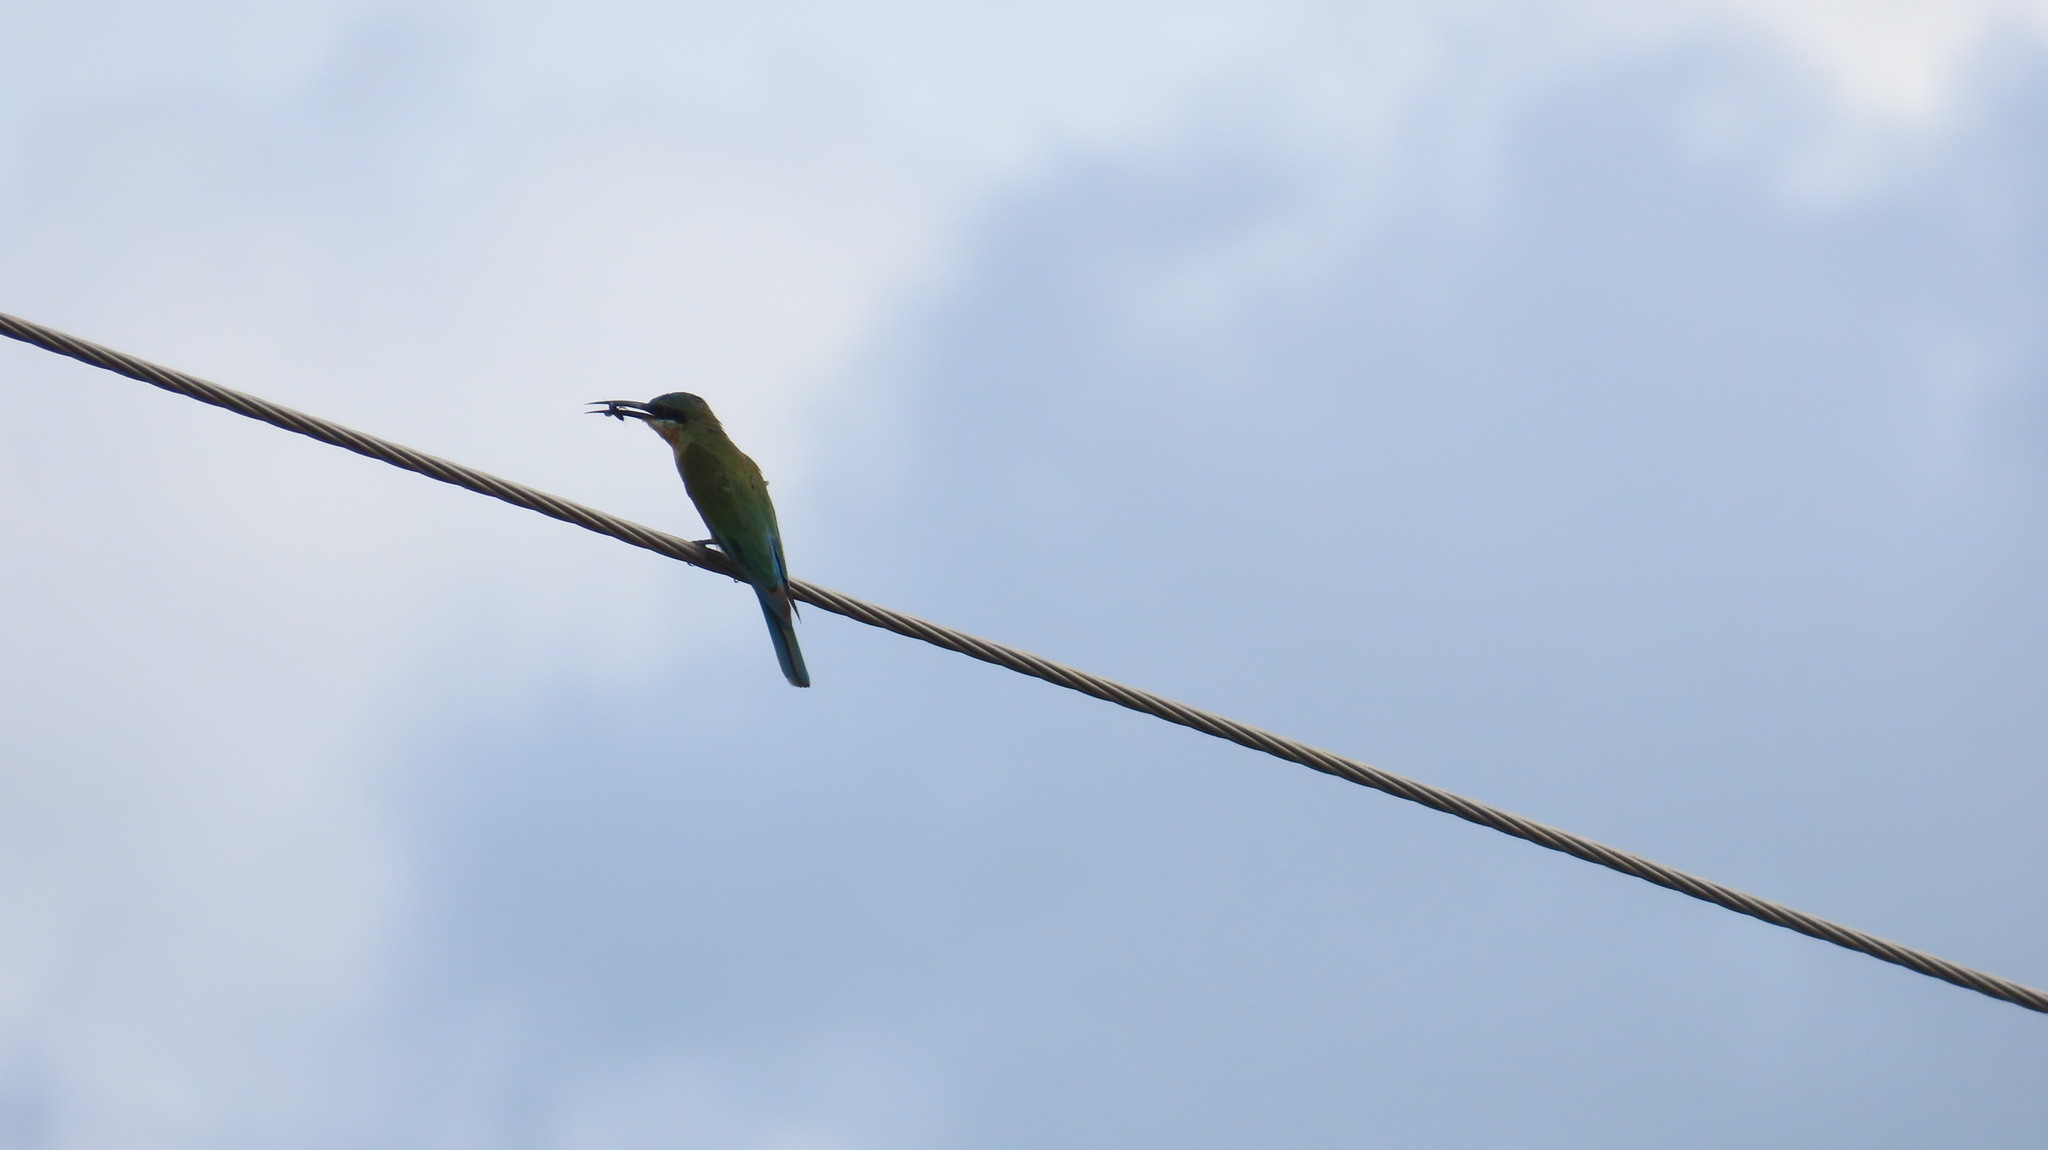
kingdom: Animalia
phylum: Chordata
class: Aves
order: Coraciiformes
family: Meropidae
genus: Merops
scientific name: Merops philippinus
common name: Blue-tailed bee-eater
